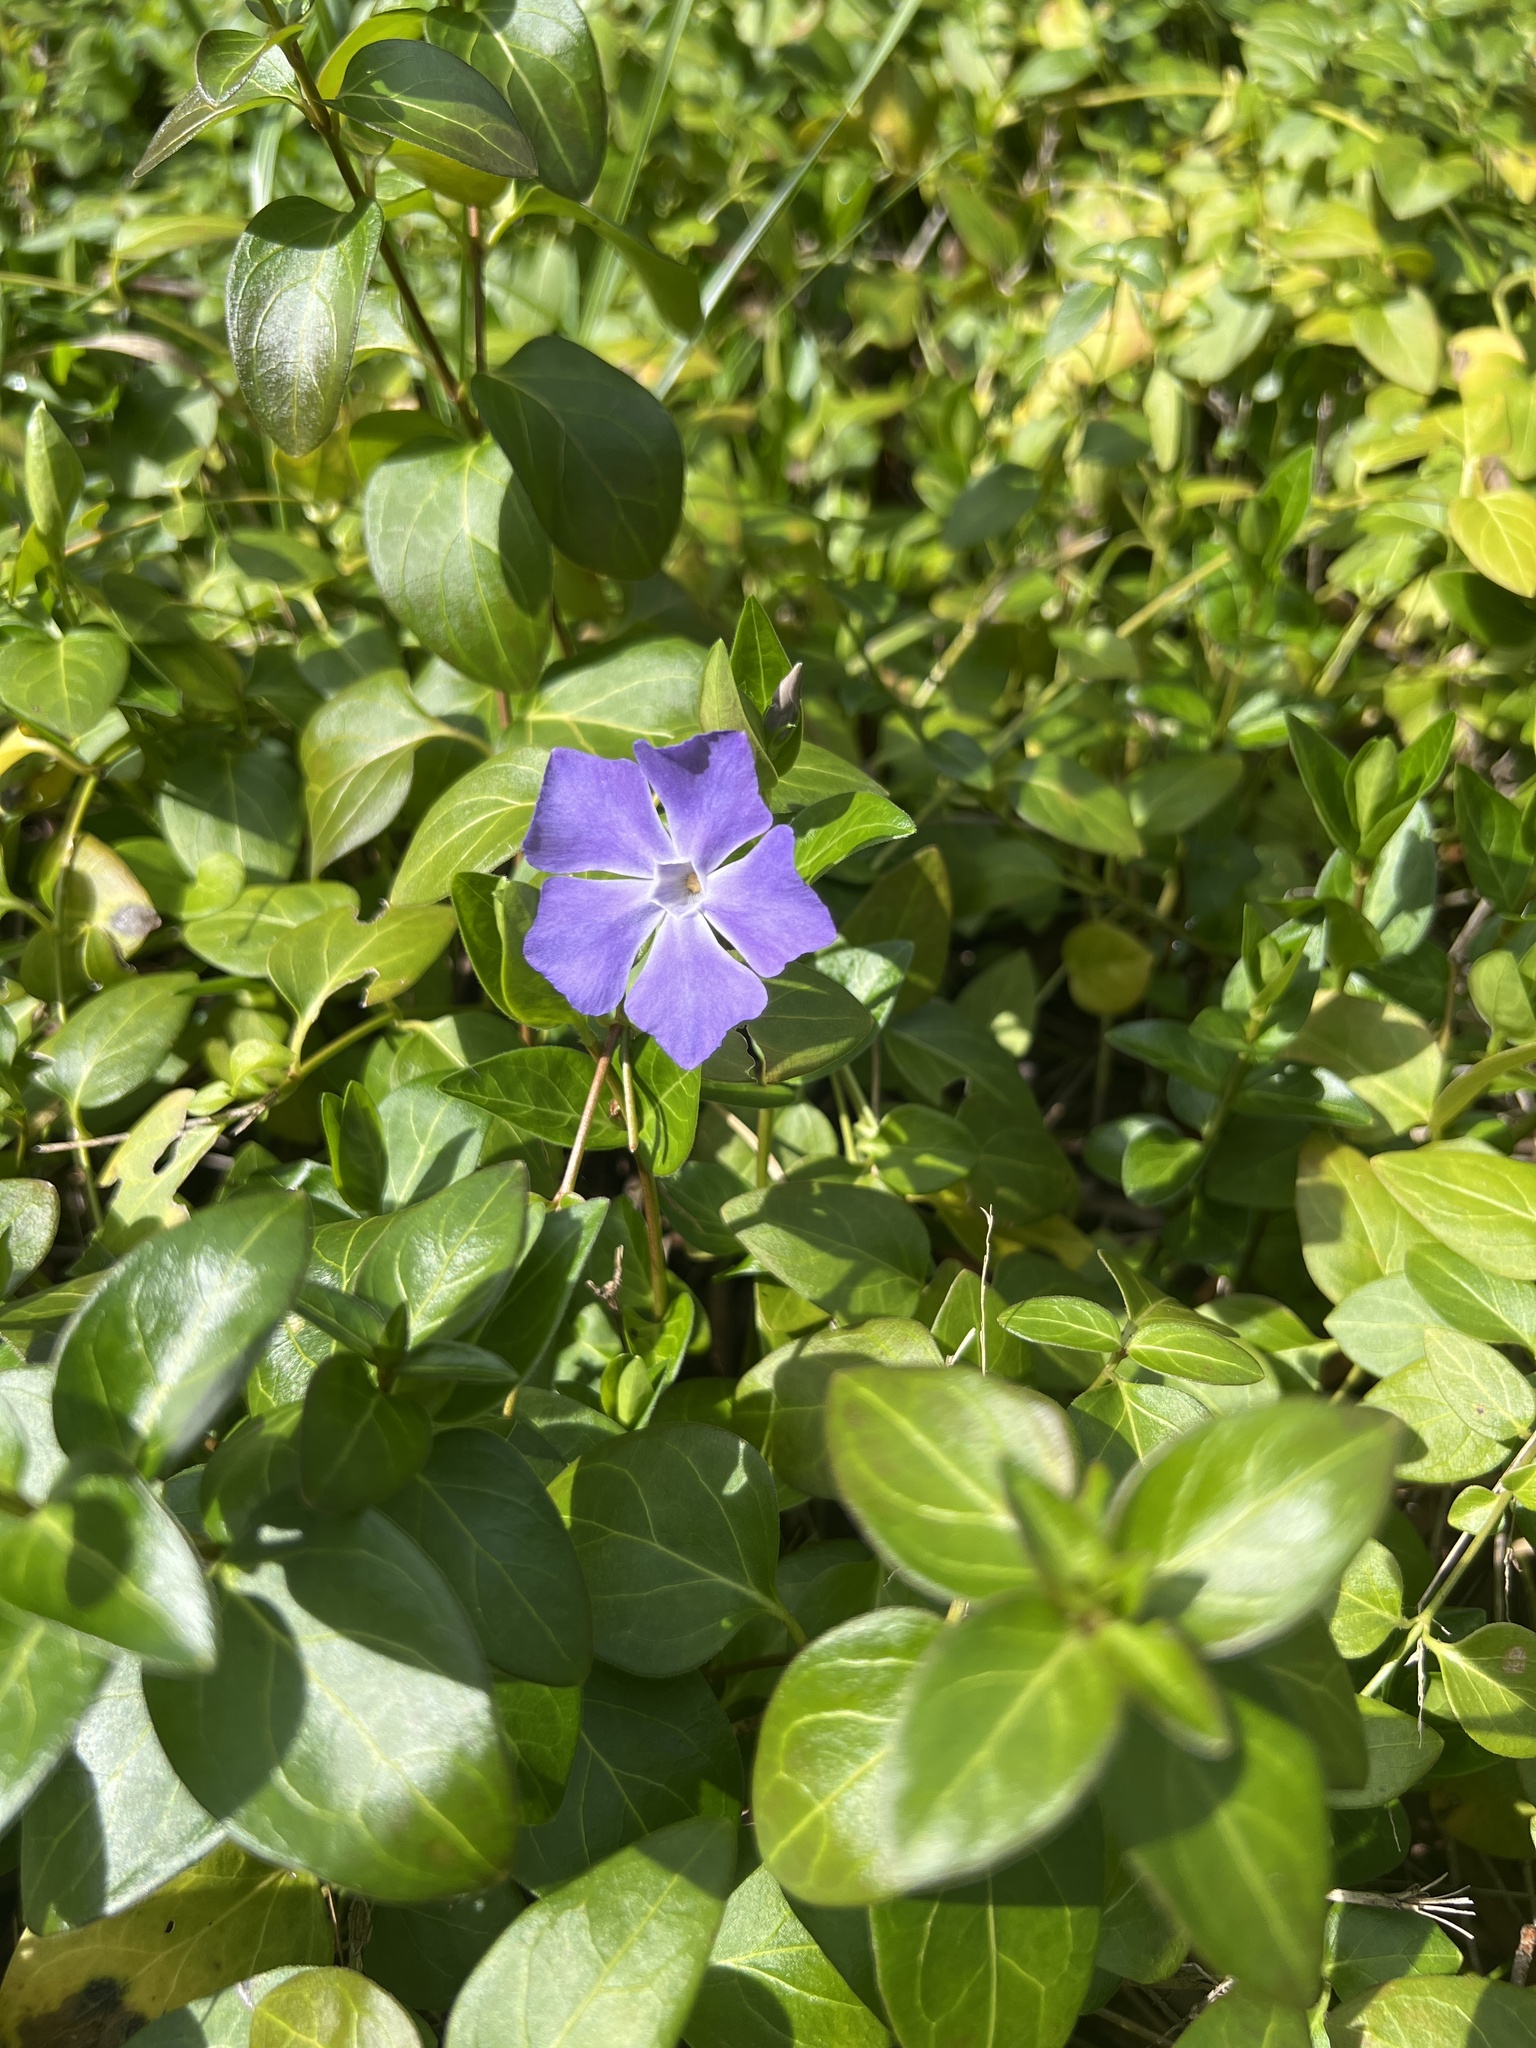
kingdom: Plantae
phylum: Tracheophyta
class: Magnoliopsida
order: Gentianales
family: Apocynaceae
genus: Vinca
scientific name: Vinca major
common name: Greater periwinkle
